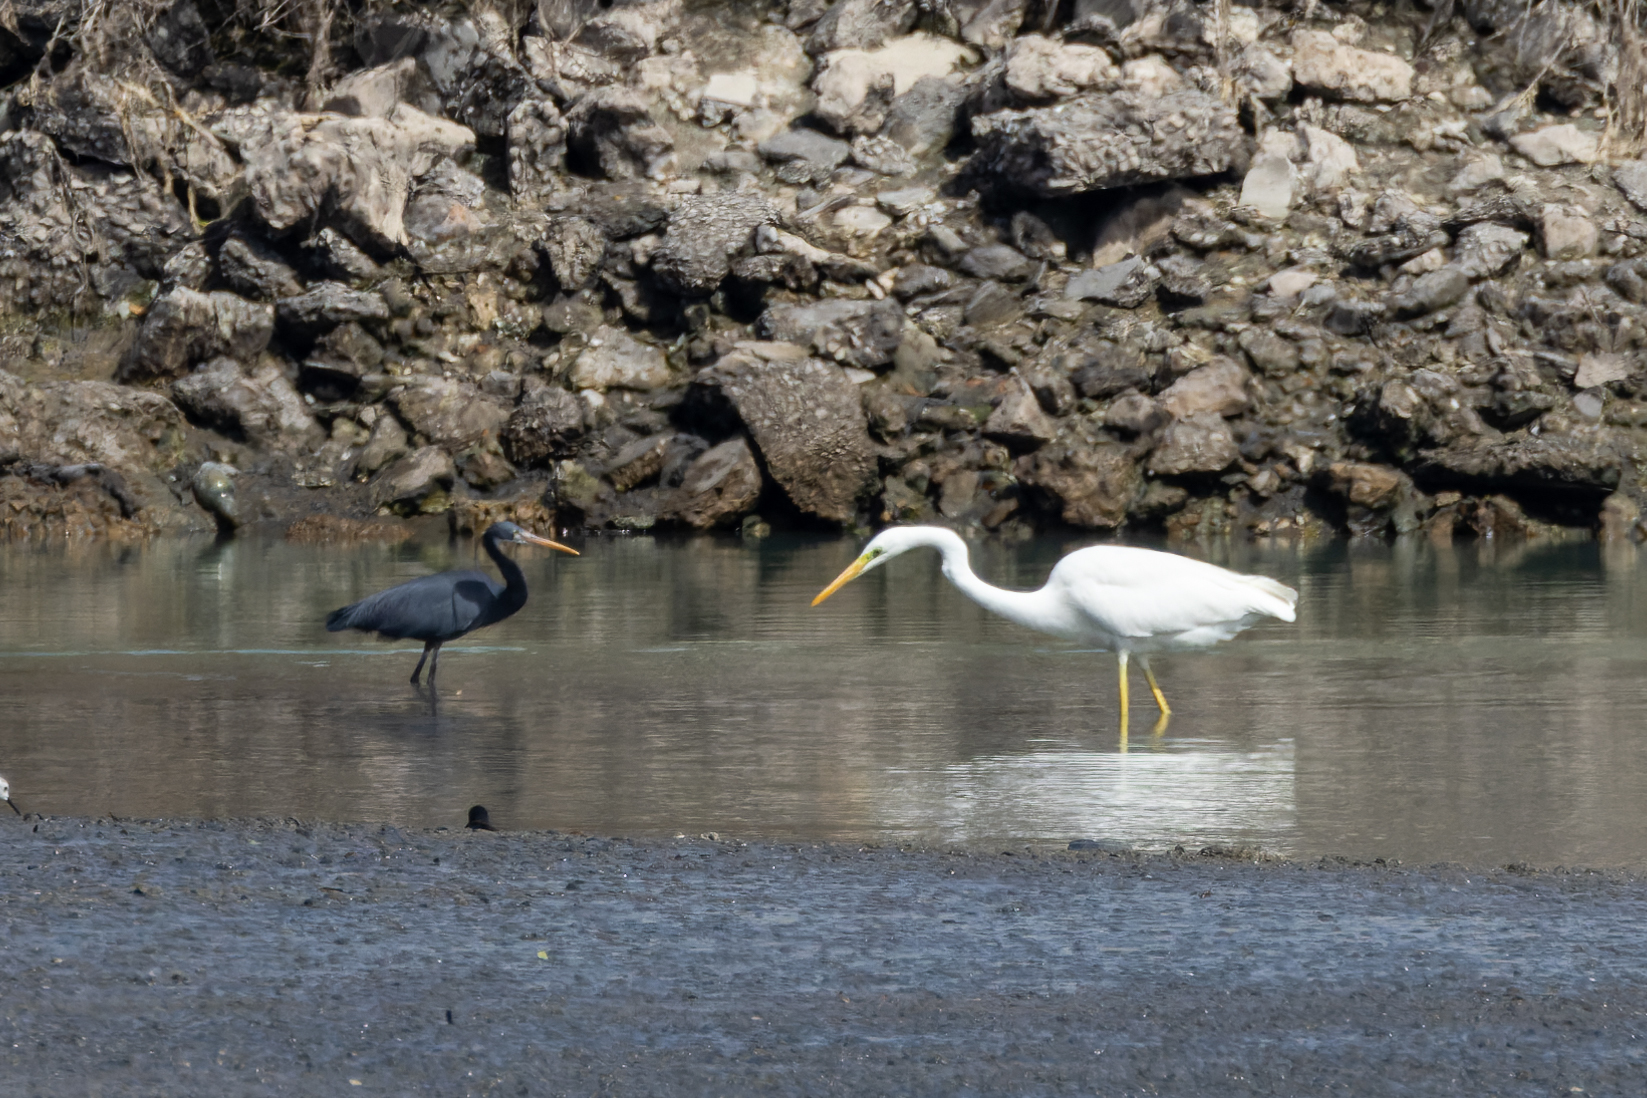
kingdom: Animalia
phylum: Chordata
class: Aves
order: Pelecaniformes
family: Ardeidae
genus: Egretta
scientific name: Egretta gularis
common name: Western reef-heron
